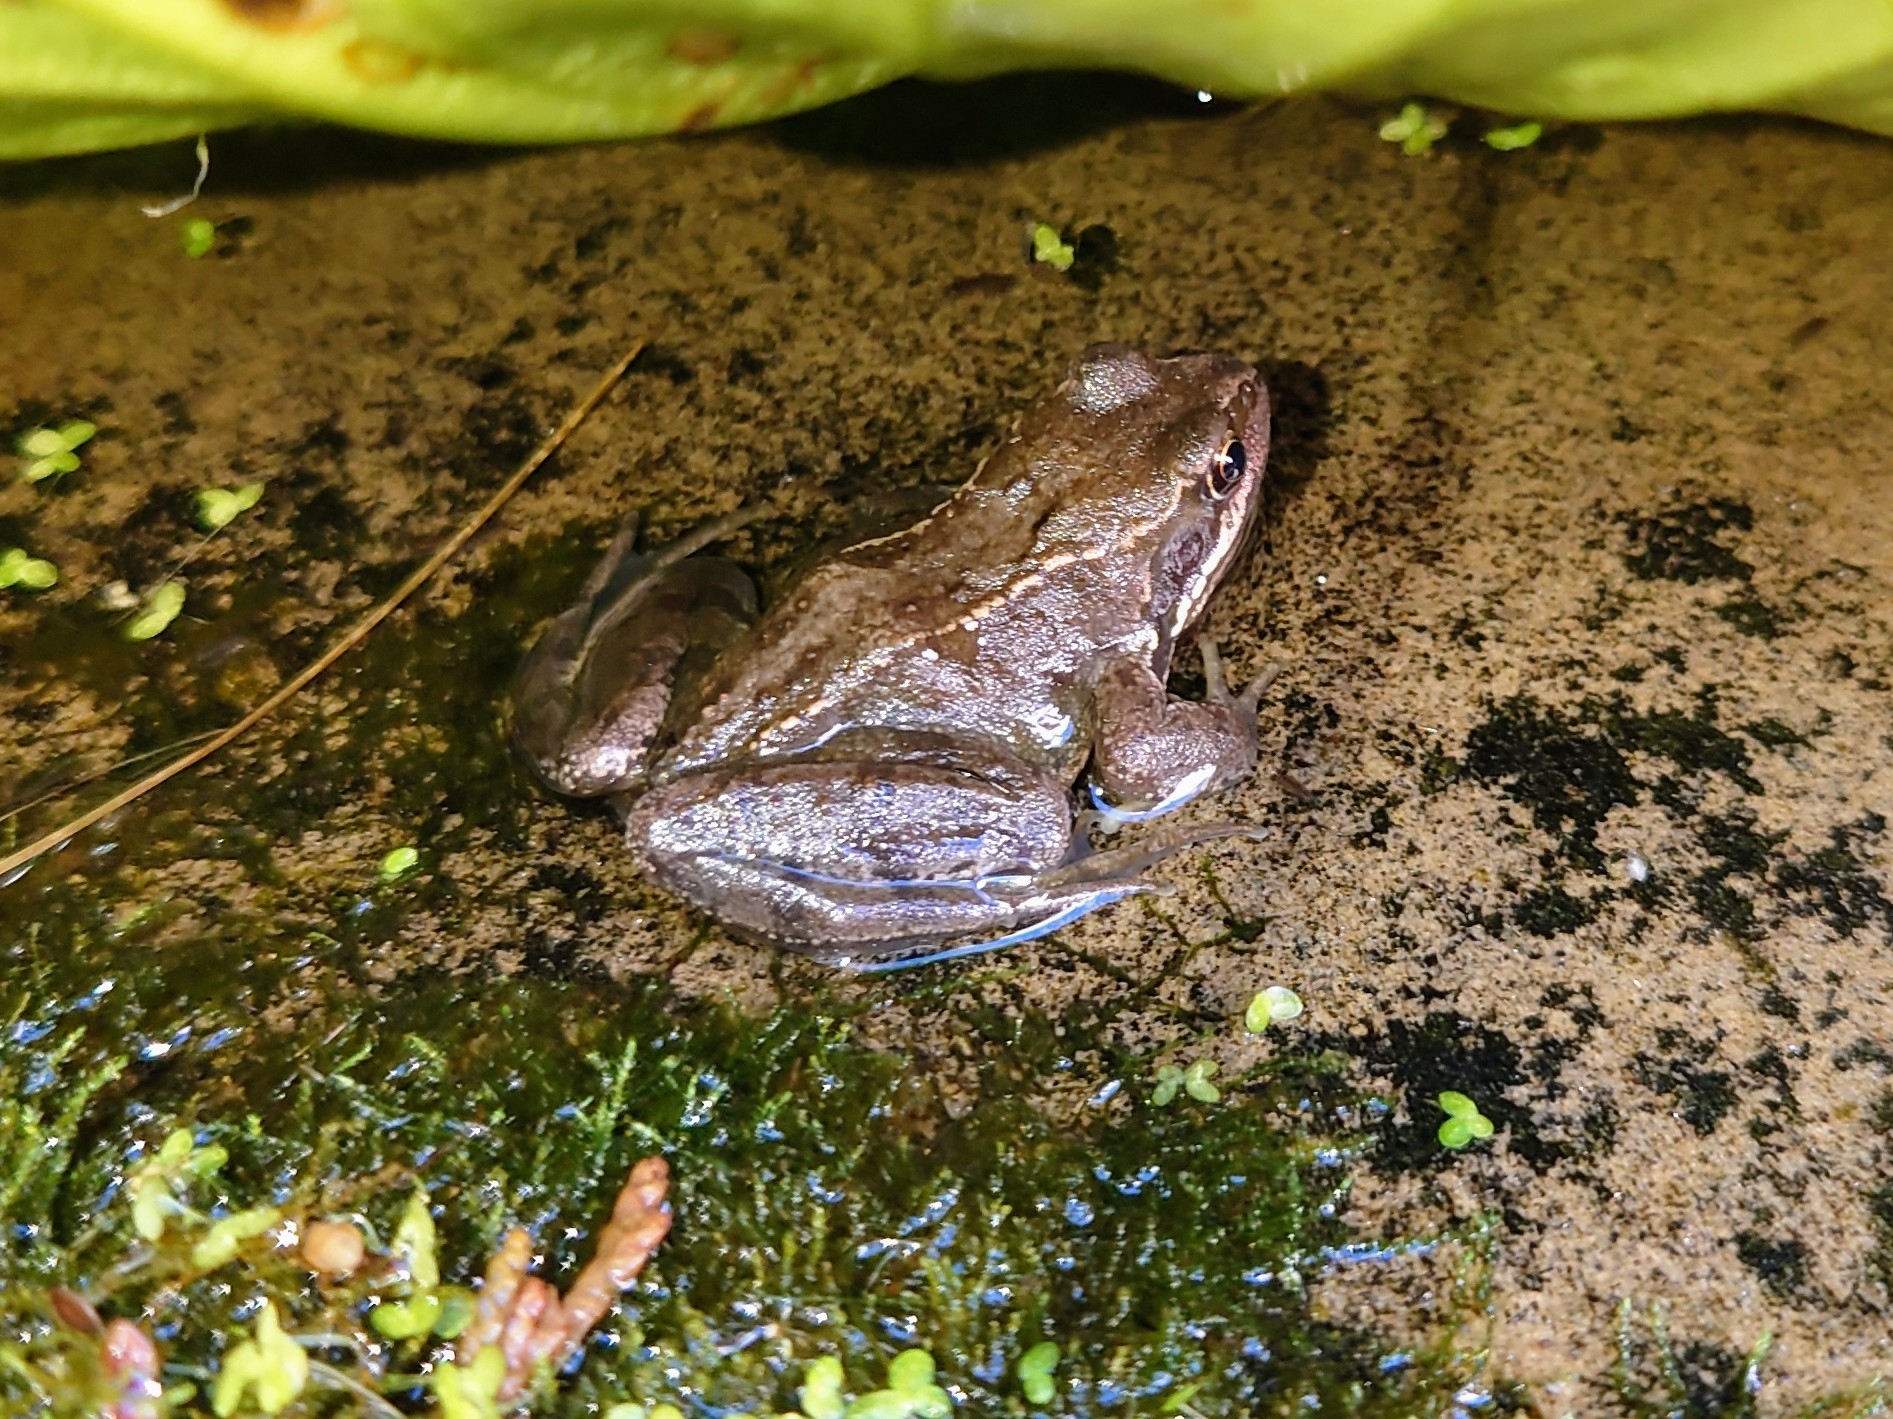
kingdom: Animalia
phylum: Chordata
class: Amphibia
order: Anura
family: Ranidae
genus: Rana
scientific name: Rana temporaria
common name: Common frog
